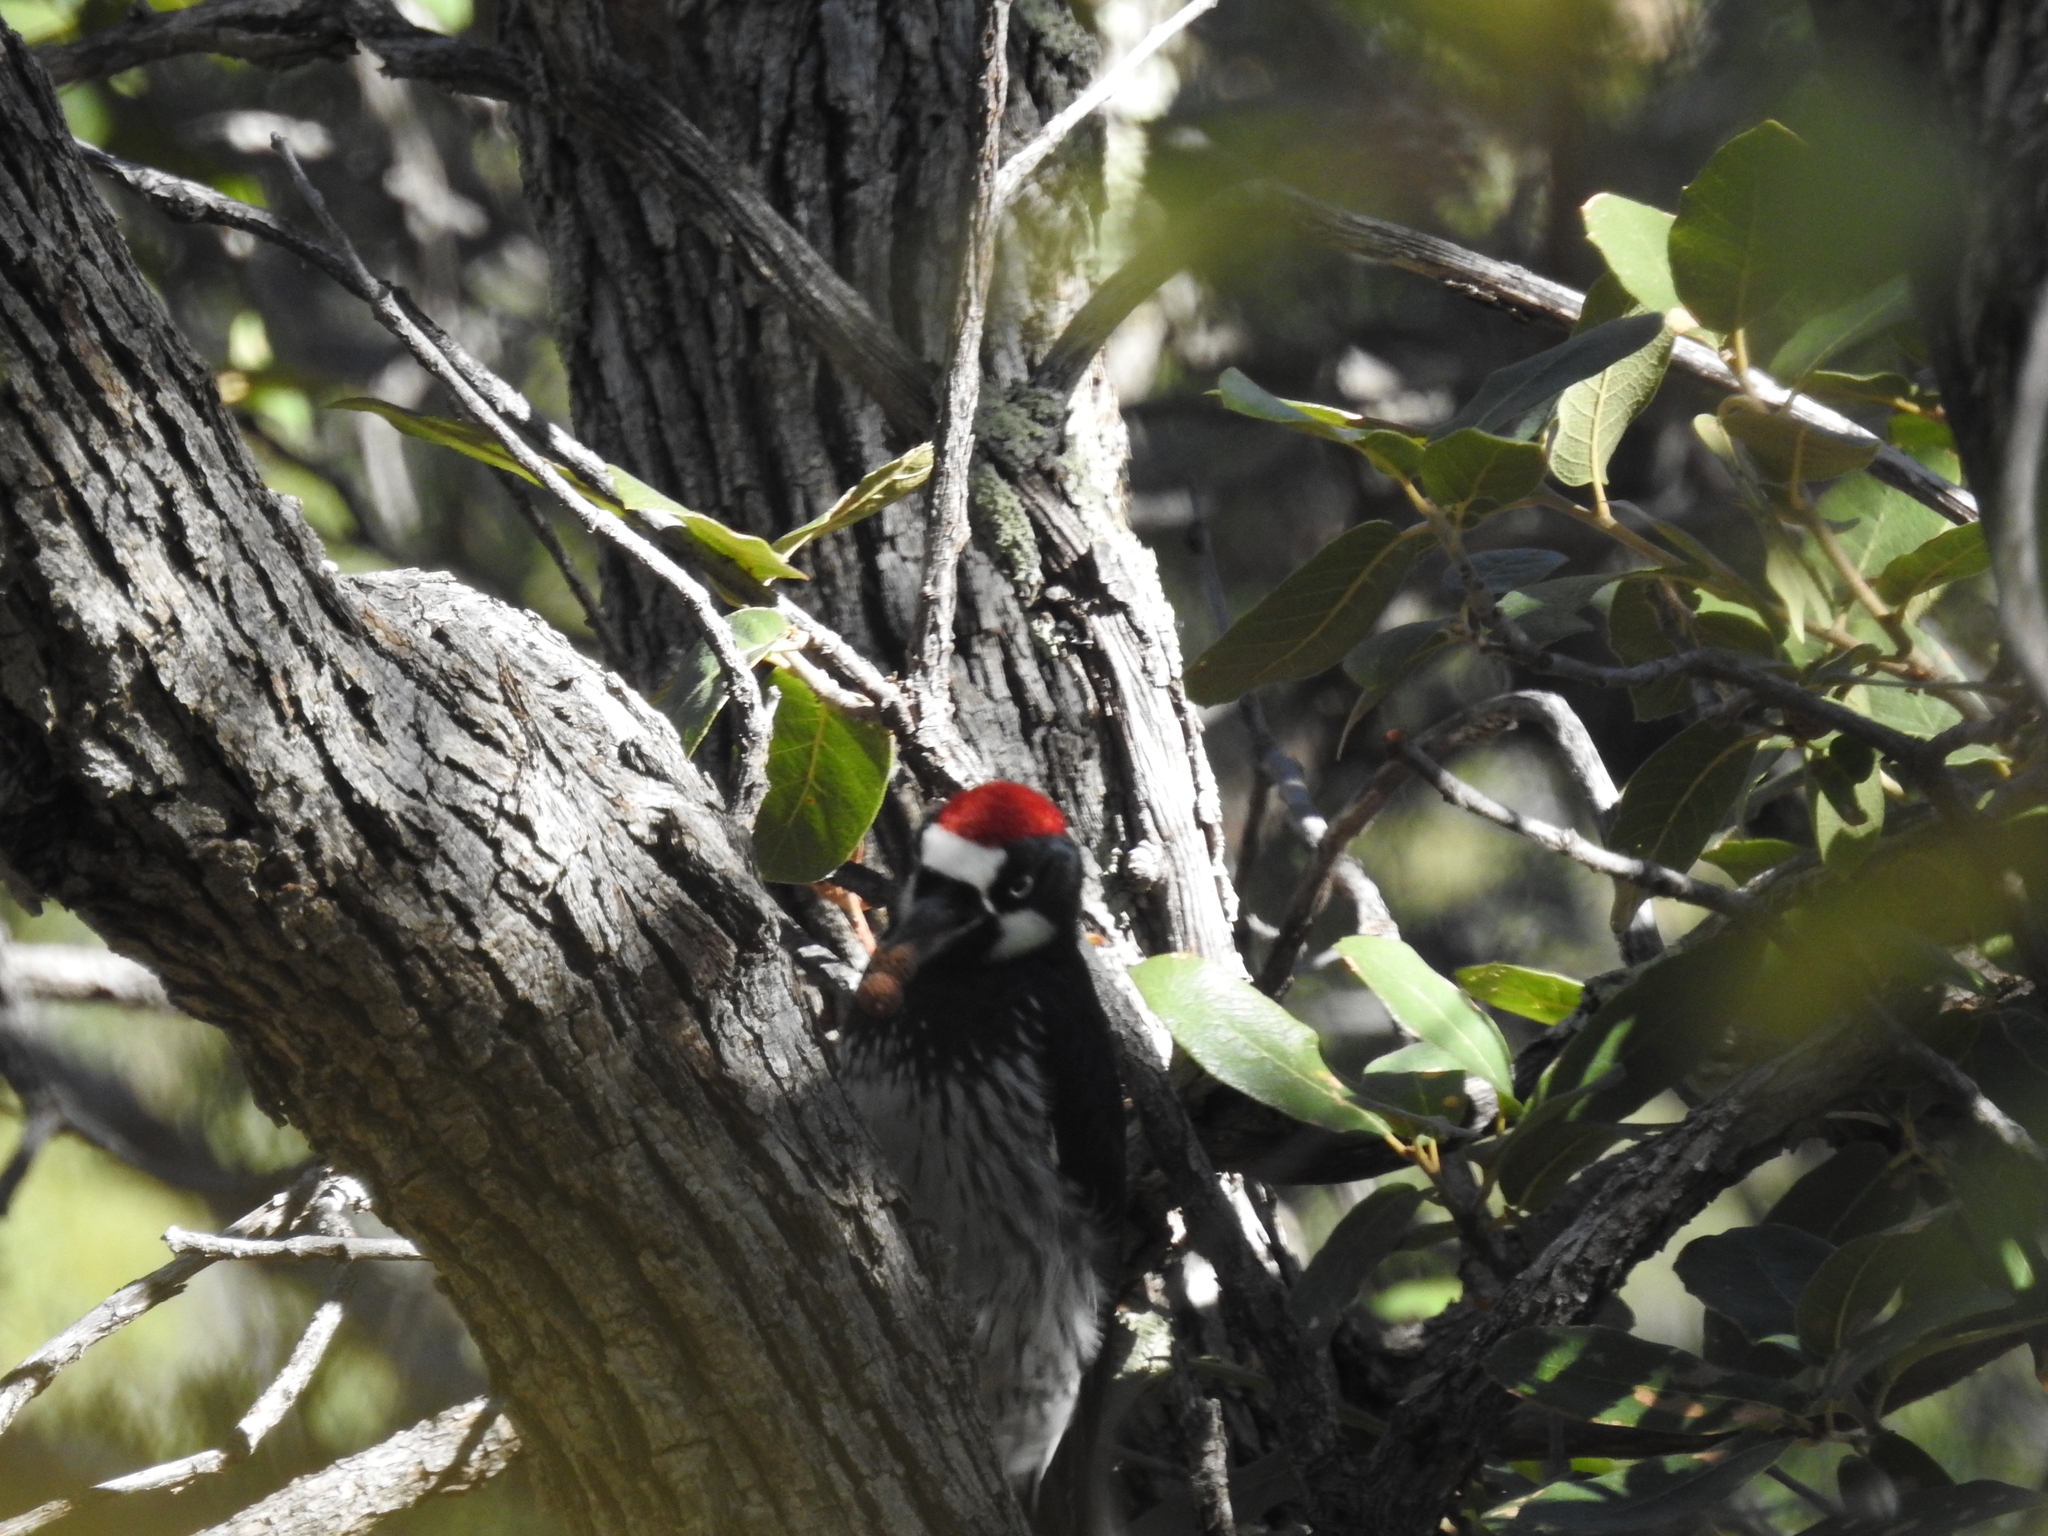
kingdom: Animalia
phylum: Chordata
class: Aves
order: Piciformes
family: Picidae
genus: Melanerpes
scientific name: Melanerpes formicivorus
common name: Acorn woodpecker
